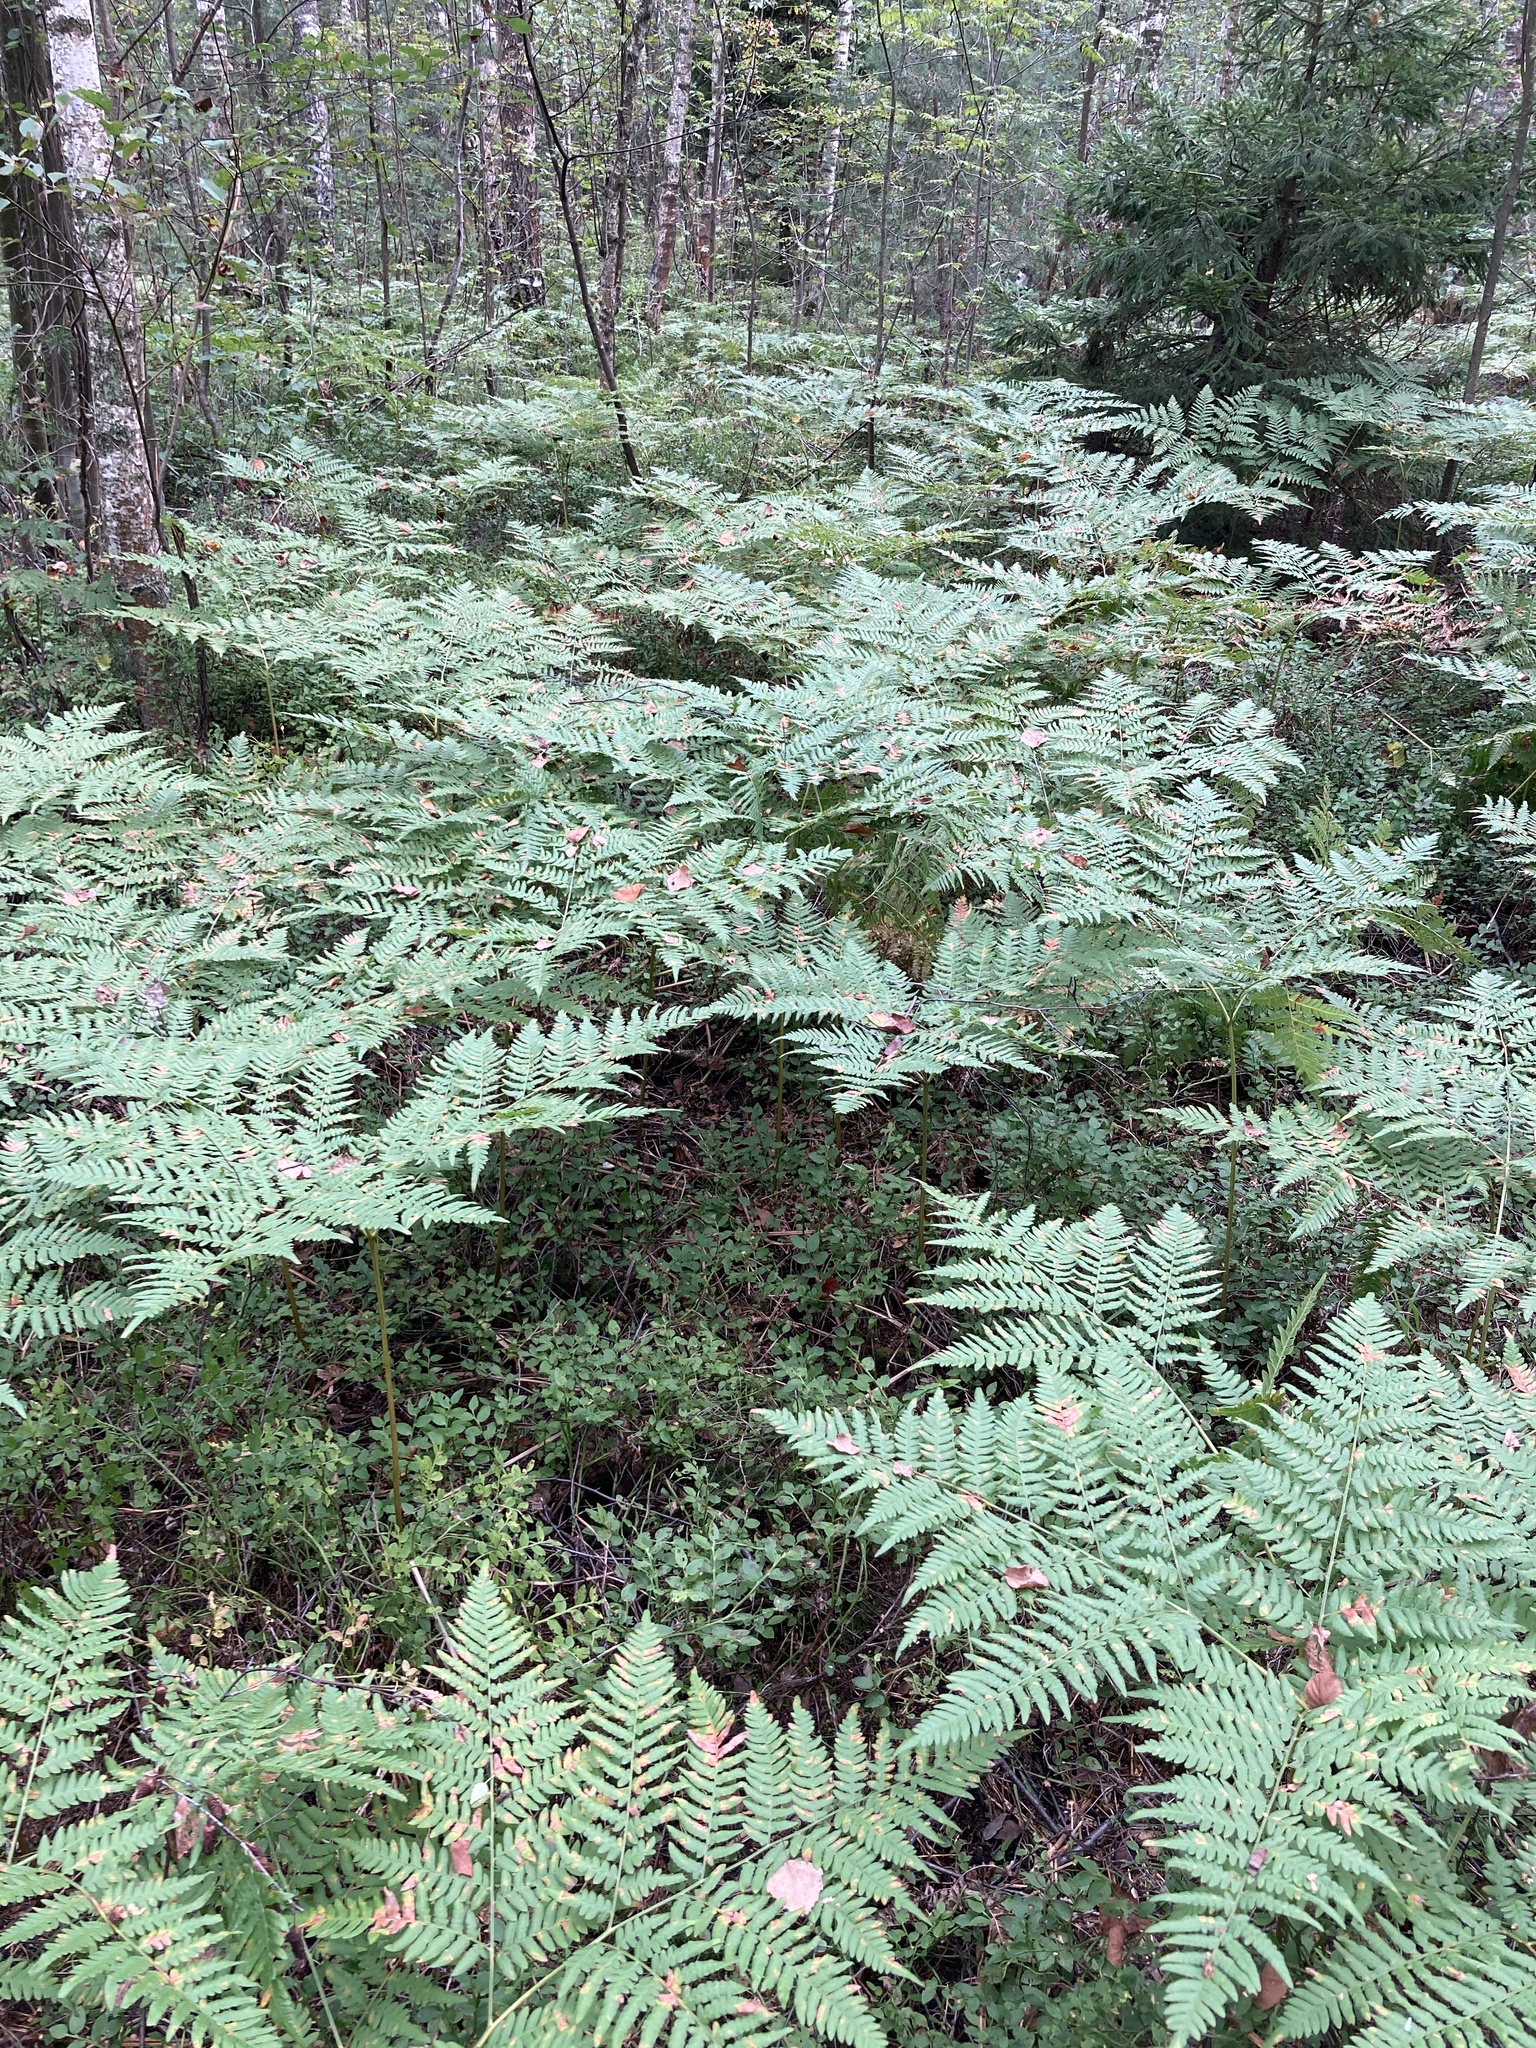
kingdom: Plantae
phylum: Tracheophyta
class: Polypodiopsida
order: Polypodiales
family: Dennstaedtiaceae
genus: Pteridium
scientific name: Pteridium aquilinum
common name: Bracken
